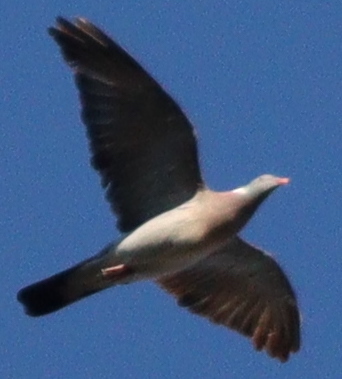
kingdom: Animalia
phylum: Chordata
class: Aves
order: Columbiformes
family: Columbidae
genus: Columba
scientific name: Columba palumbus
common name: Common wood pigeon
